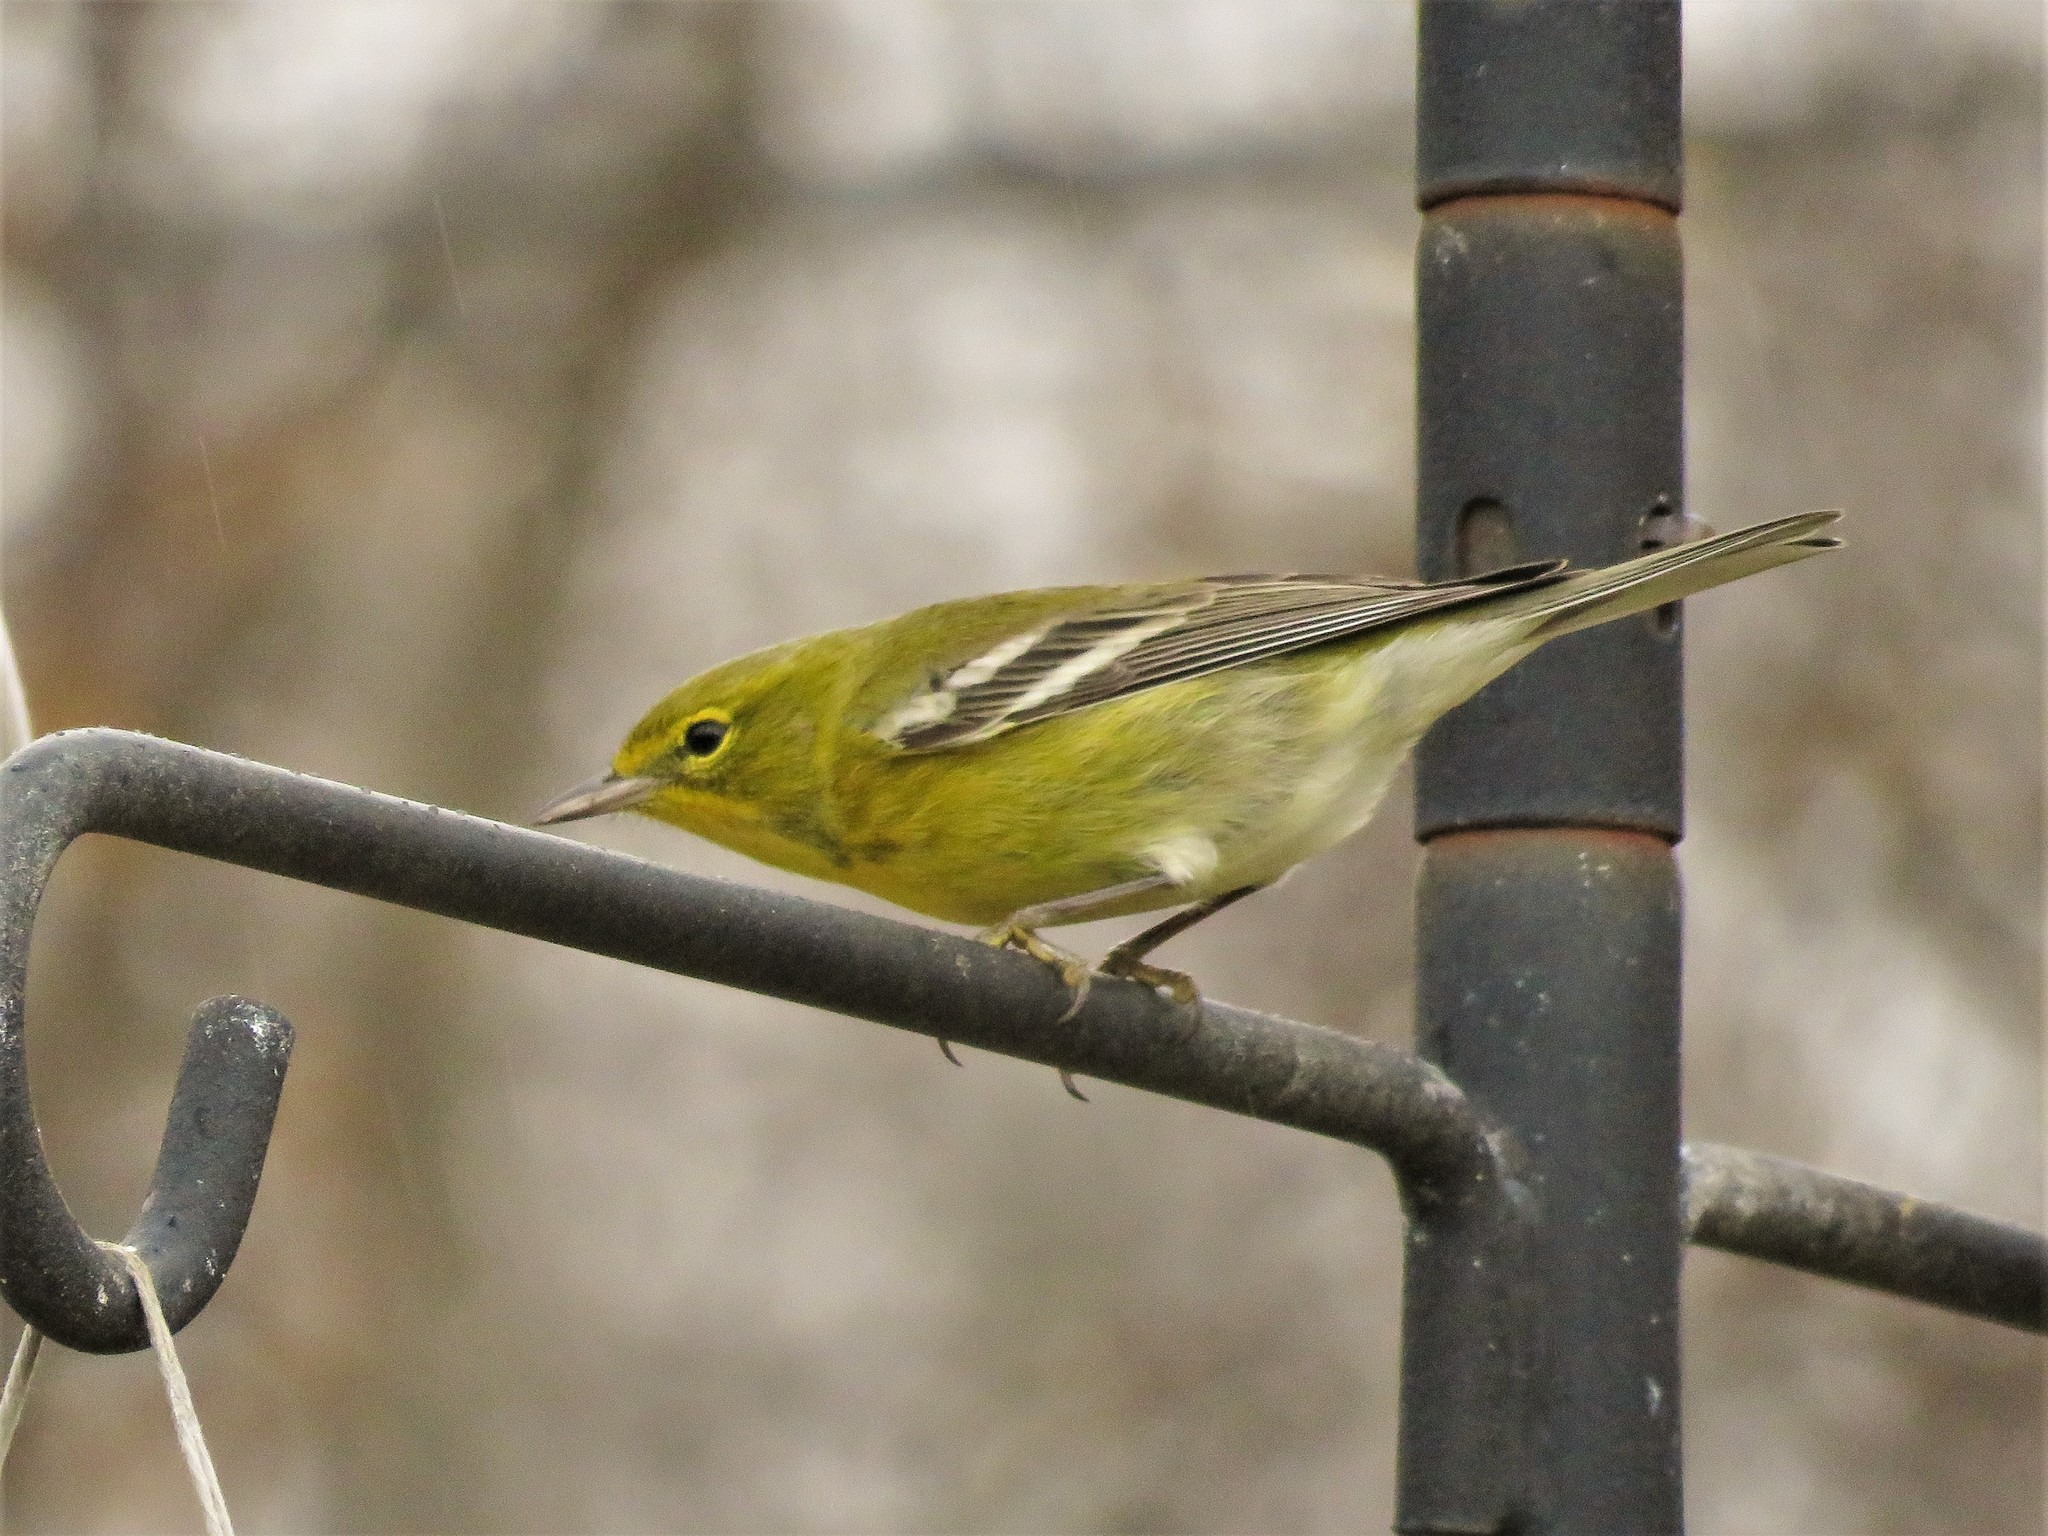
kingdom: Animalia
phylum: Chordata
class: Aves
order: Passeriformes
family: Parulidae
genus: Setophaga
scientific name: Setophaga pinus
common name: Pine warbler
